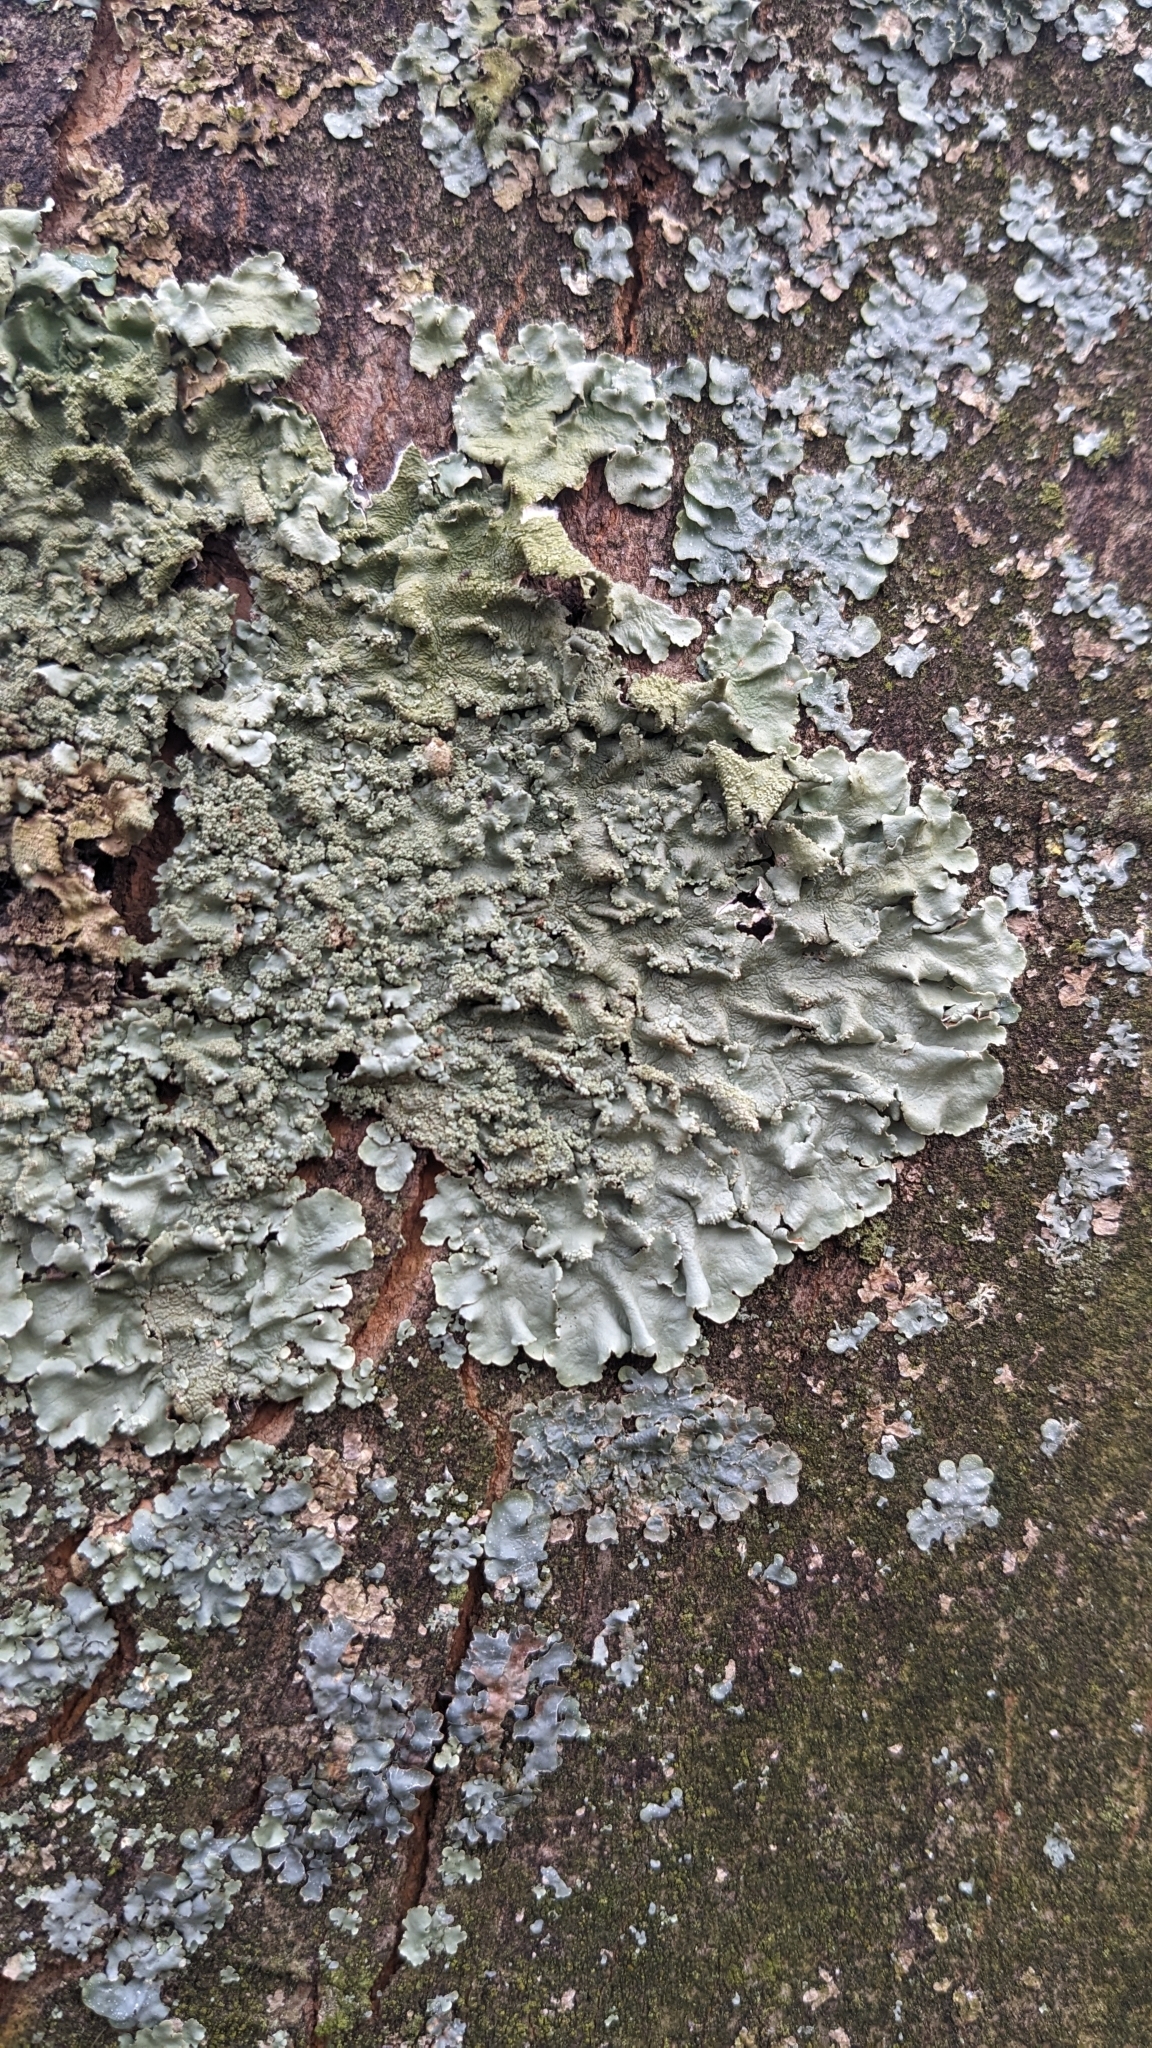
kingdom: Fungi
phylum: Ascomycota
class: Lecanoromycetes
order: Lecanorales
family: Parmeliaceae
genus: Flavoparmelia
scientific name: Flavoparmelia soredians
